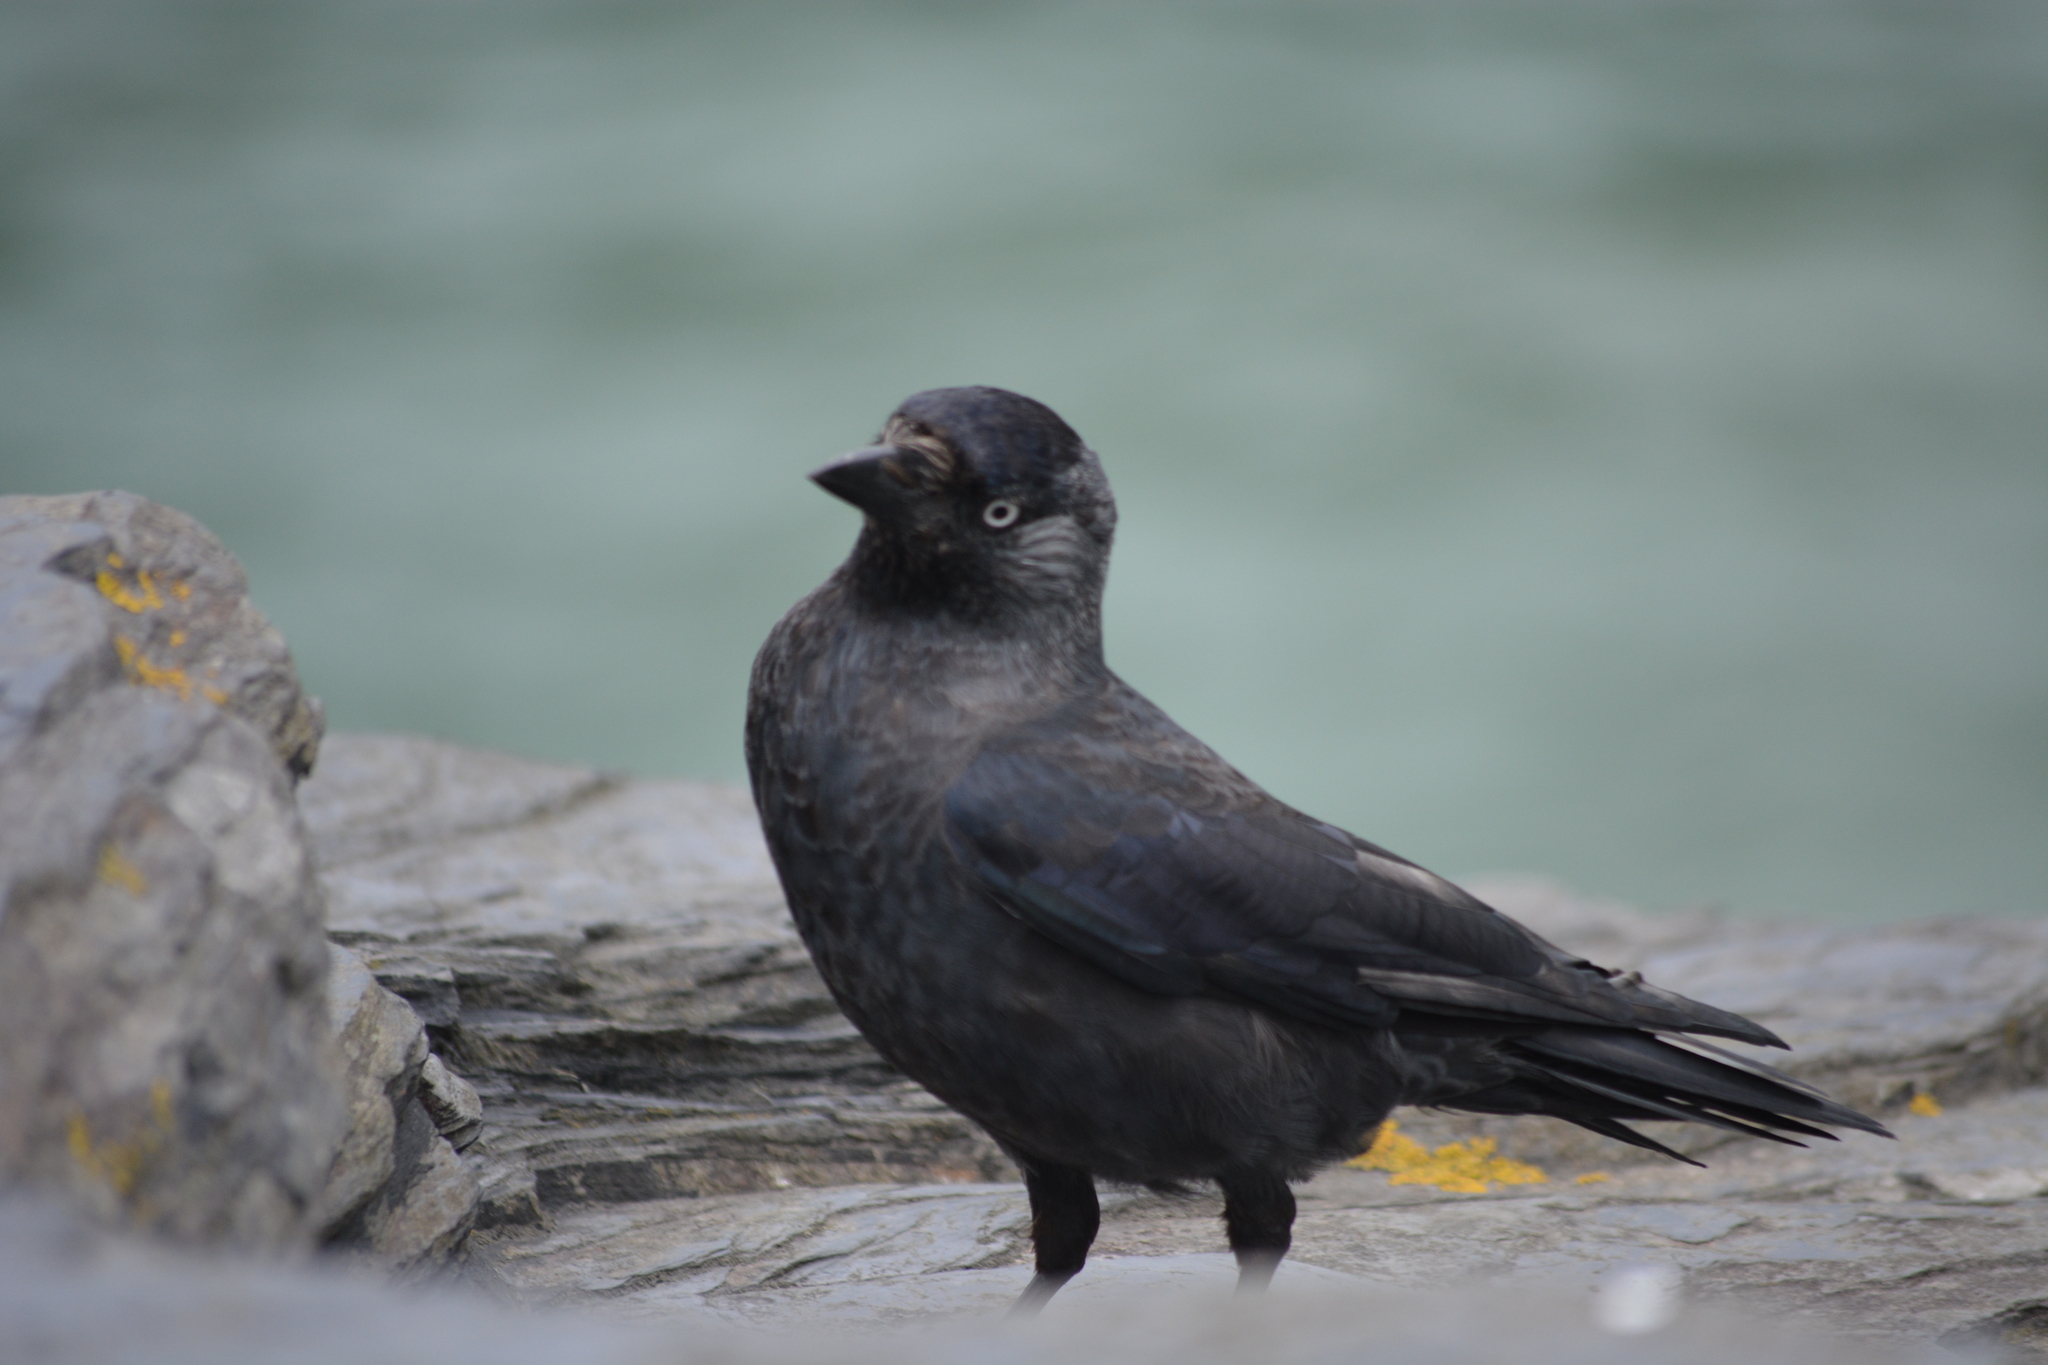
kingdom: Animalia
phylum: Chordata
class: Aves
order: Passeriformes
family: Corvidae
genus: Coloeus
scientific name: Coloeus monedula
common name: Western jackdaw
